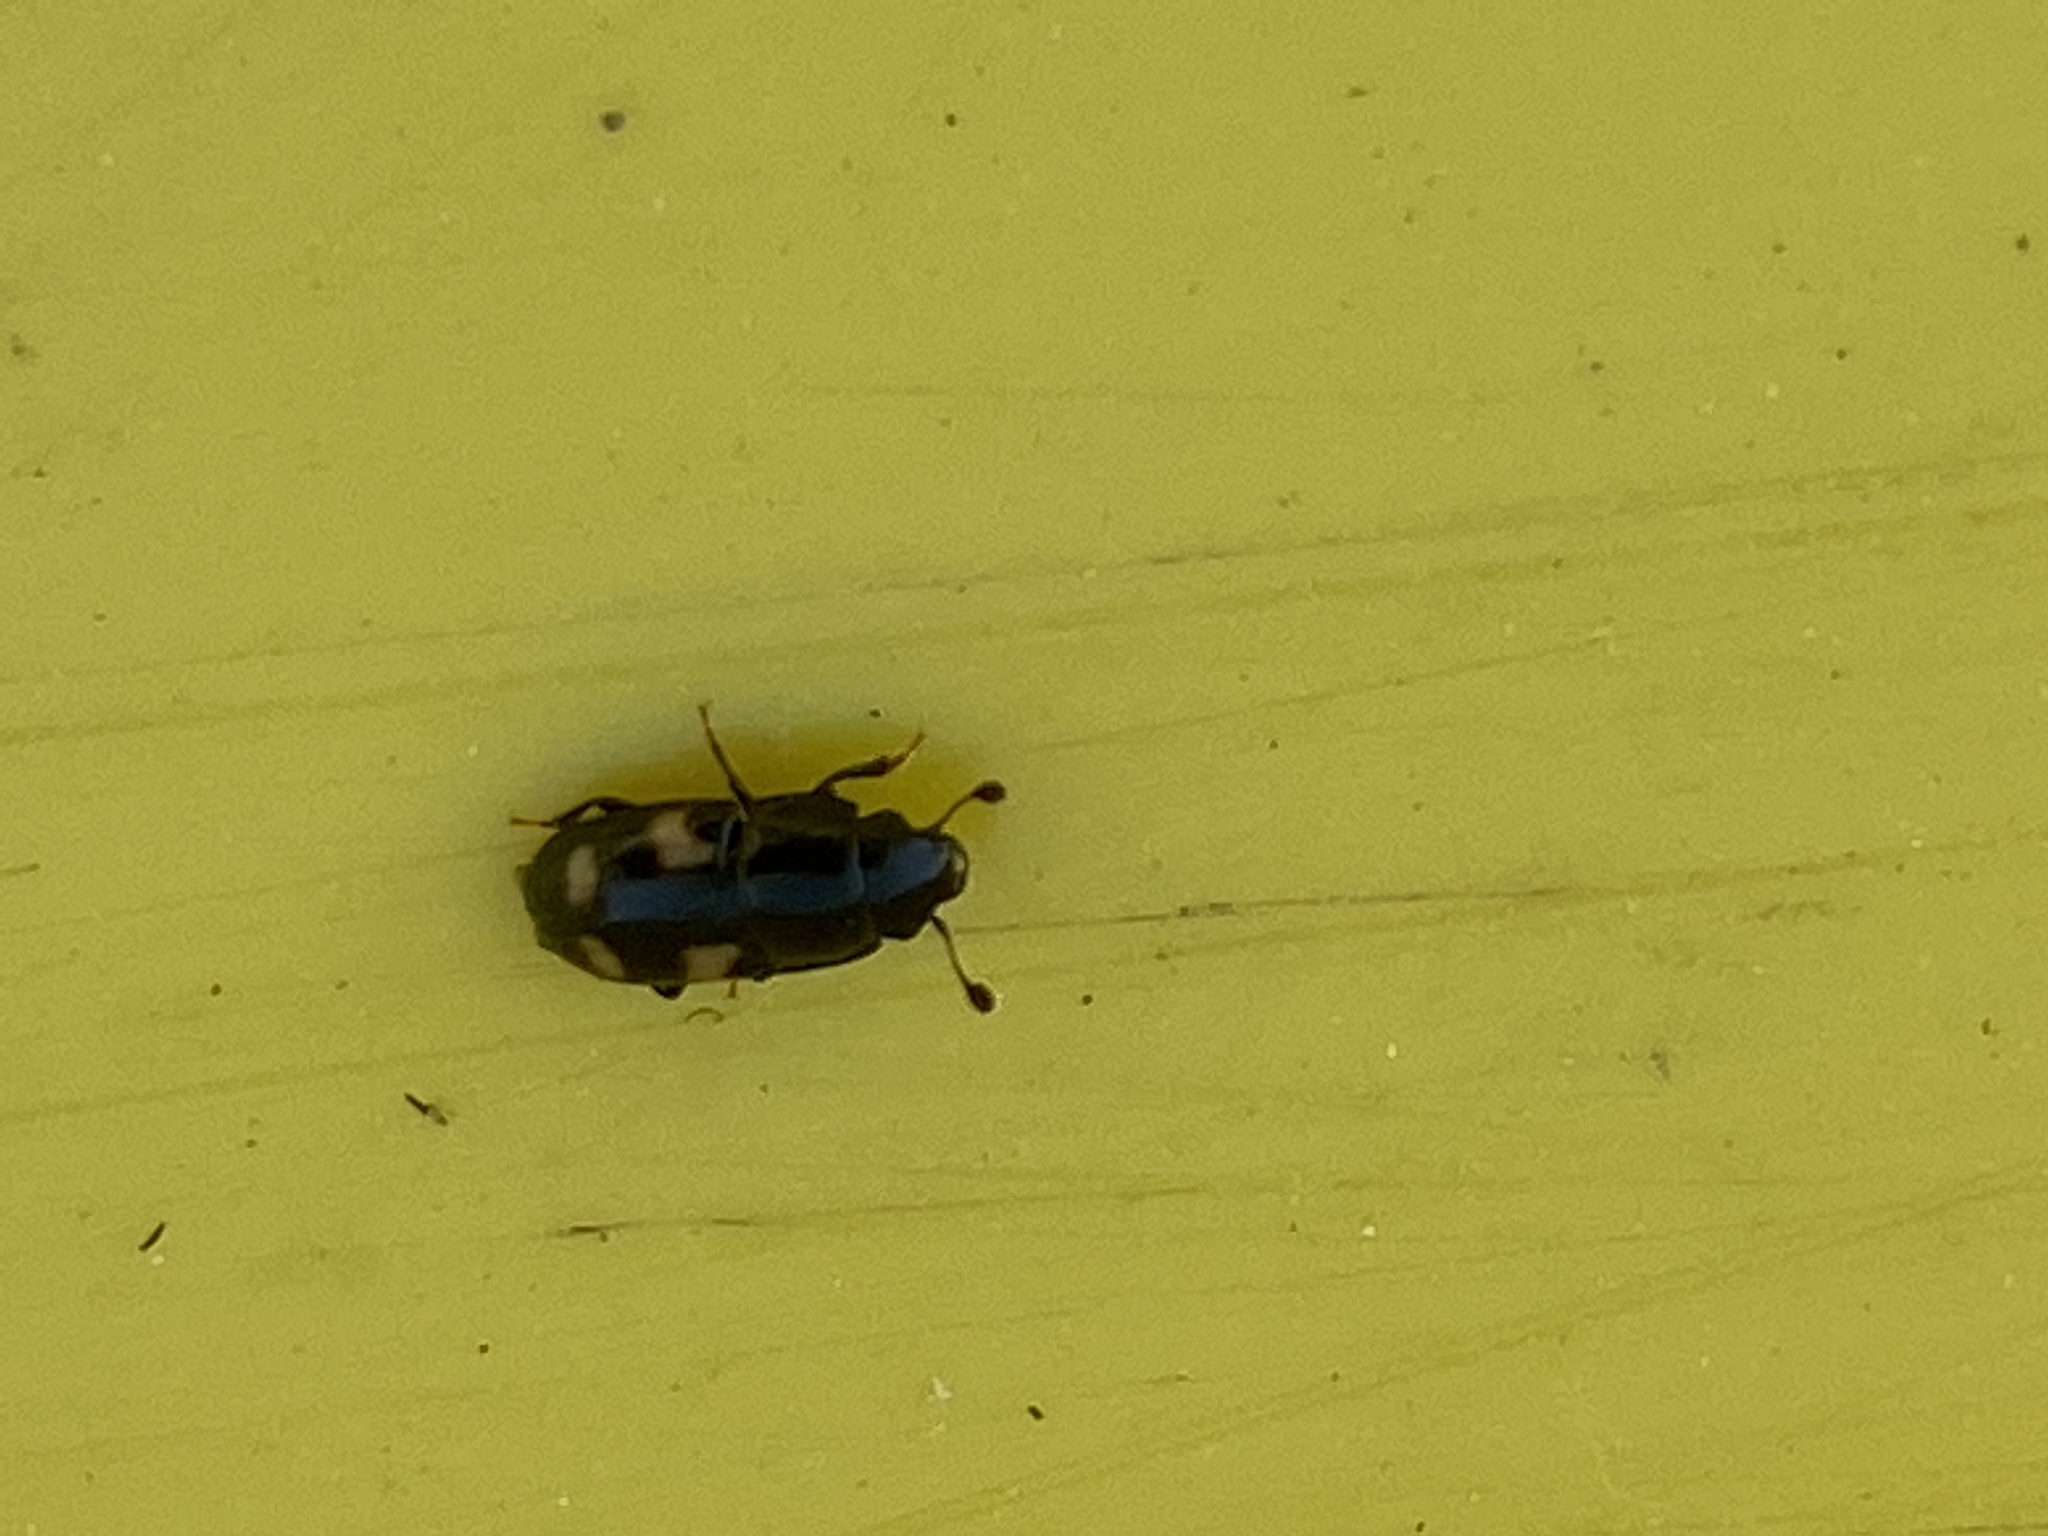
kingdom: Animalia
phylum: Arthropoda
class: Insecta
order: Coleoptera
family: Nitidulidae
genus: Glischrochilus
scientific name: Glischrochilus quadrisignatus
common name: Picnic beetle
